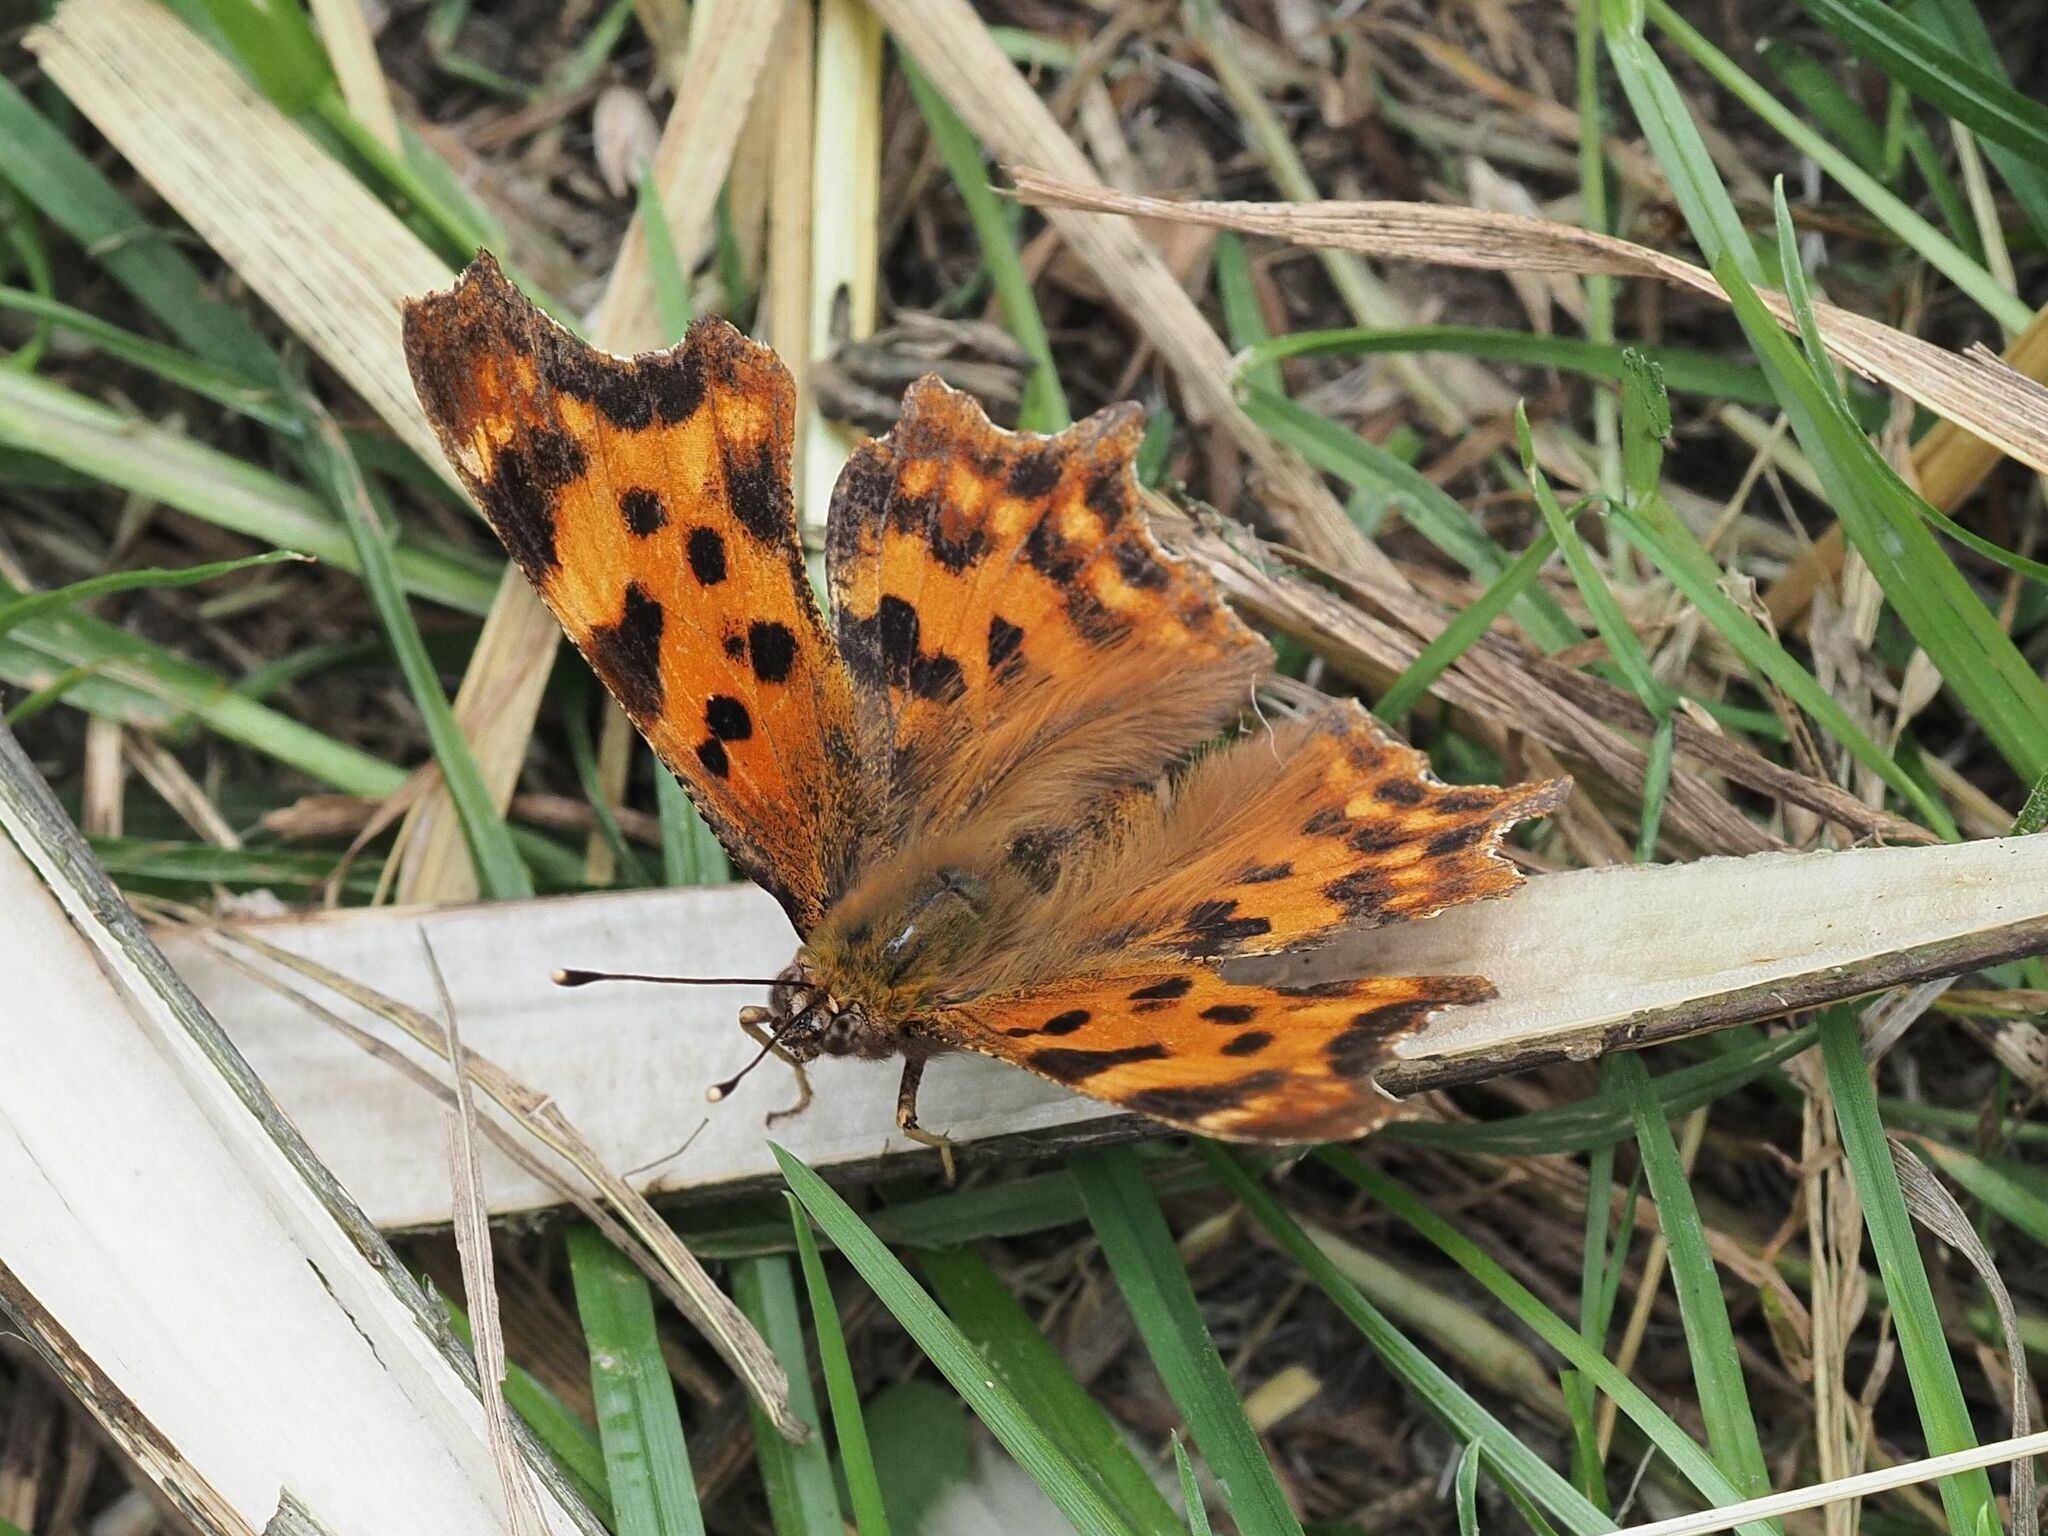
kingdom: Animalia
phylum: Arthropoda
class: Insecta
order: Lepidoptera
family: Nymphalidae
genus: Polygonia
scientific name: Polygonia c-album
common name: Comma
